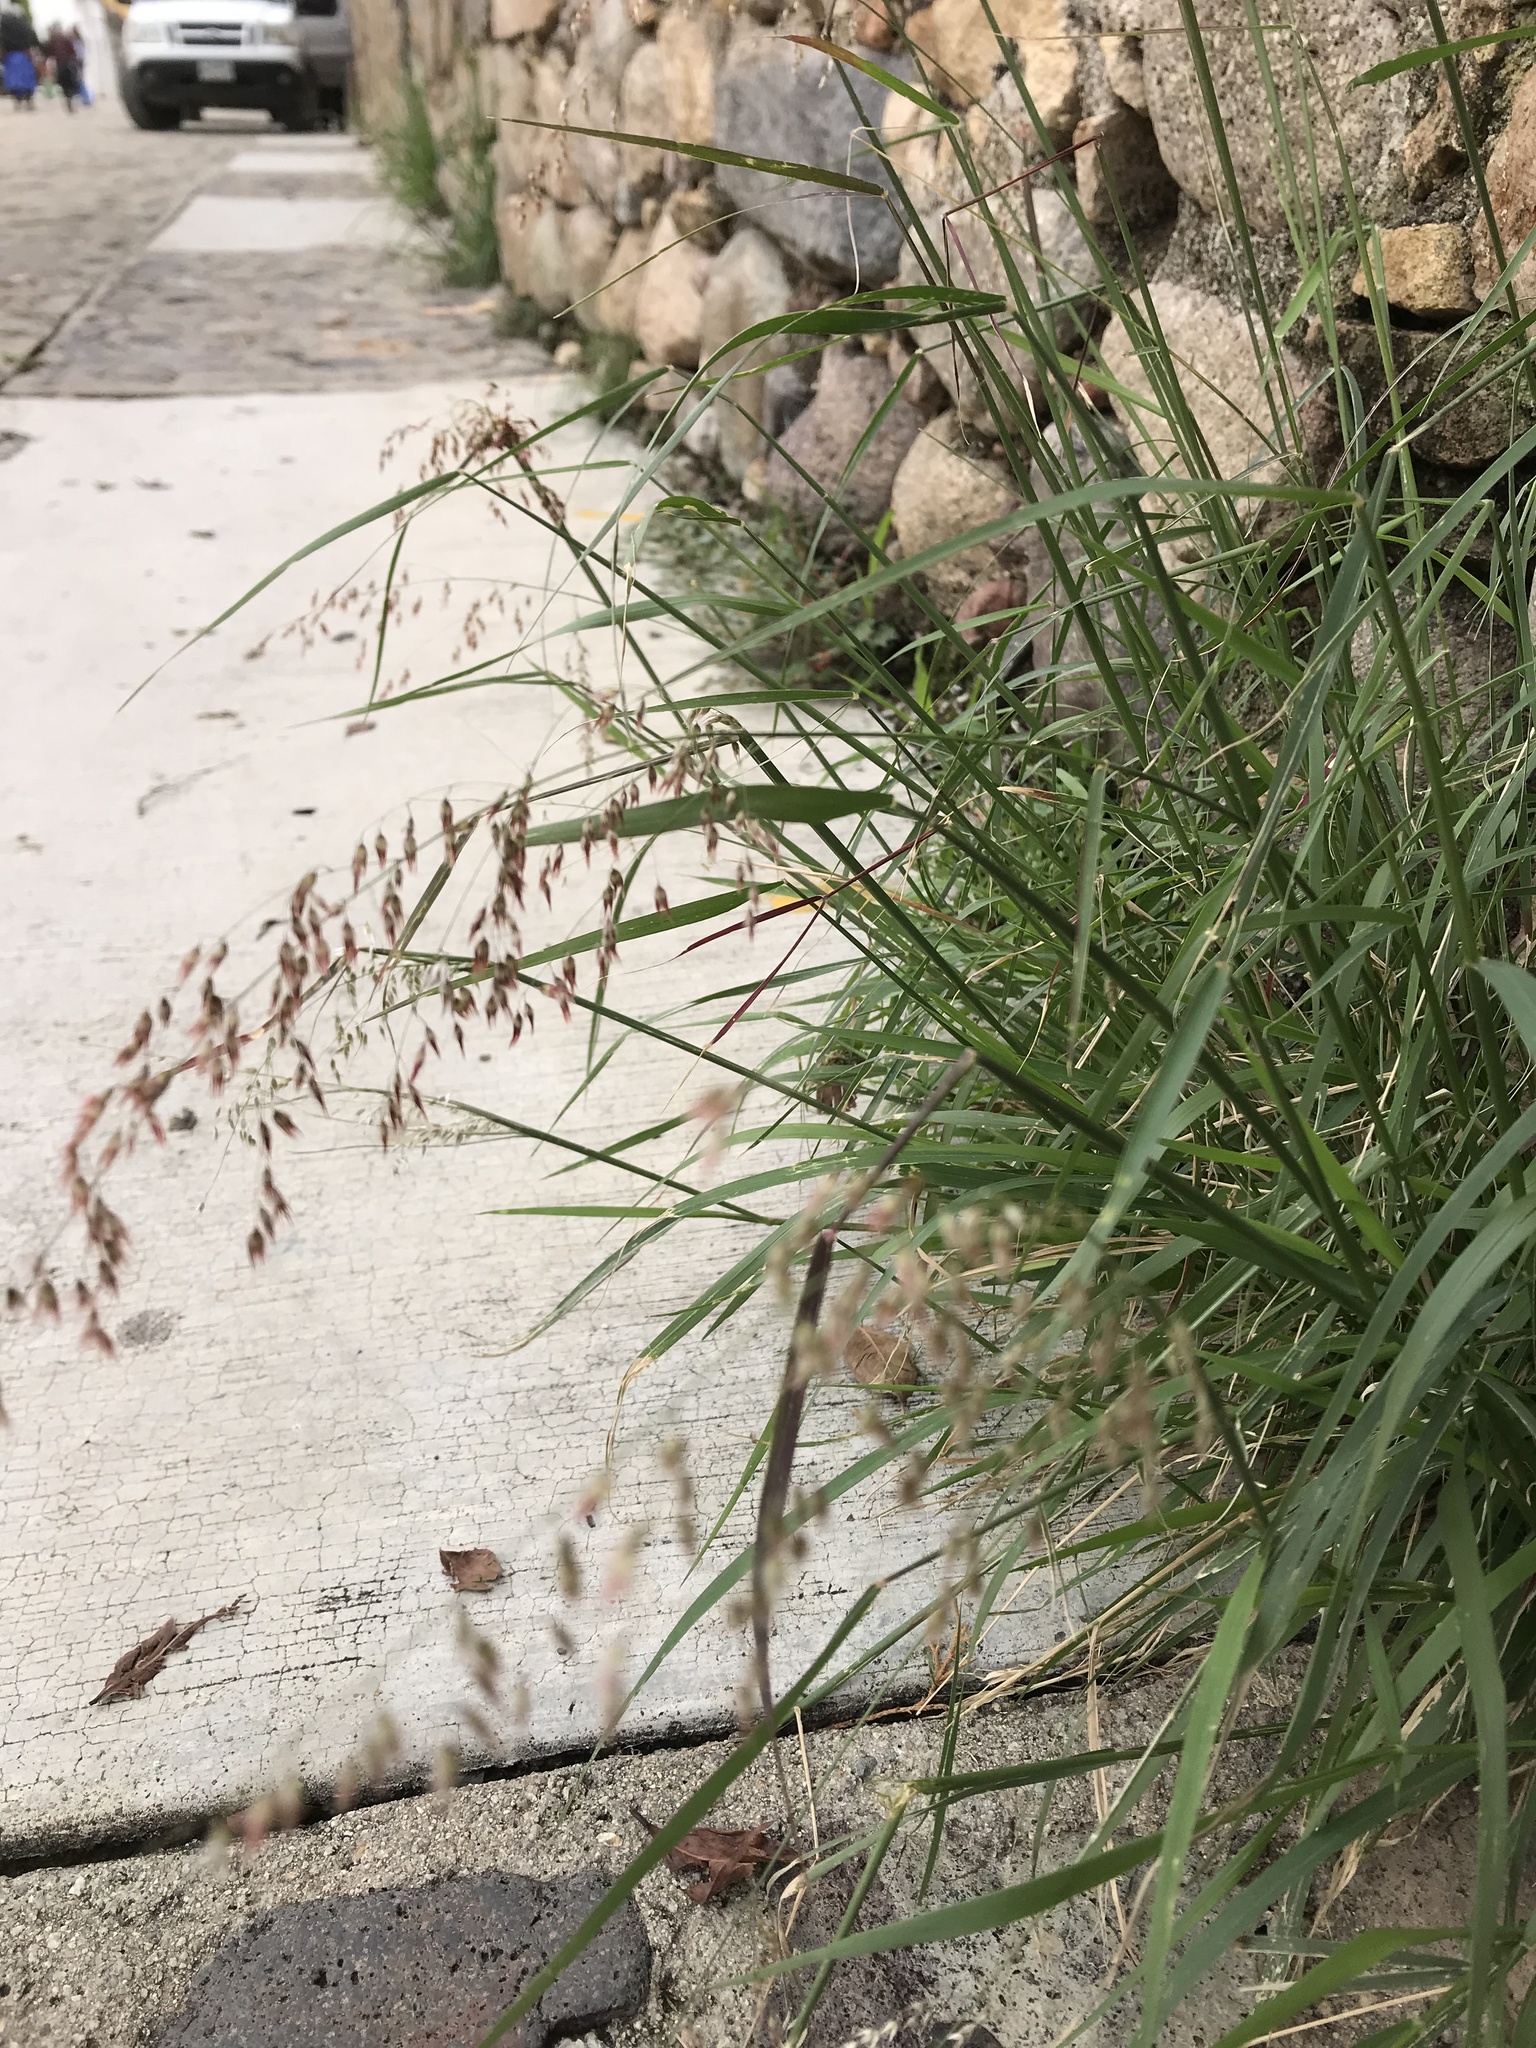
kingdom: Plantae
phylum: Tracheophyta
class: Liliopsida
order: Poales
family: Poaceae
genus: Melinis
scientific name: Melinis repens
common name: Rose natal grass
